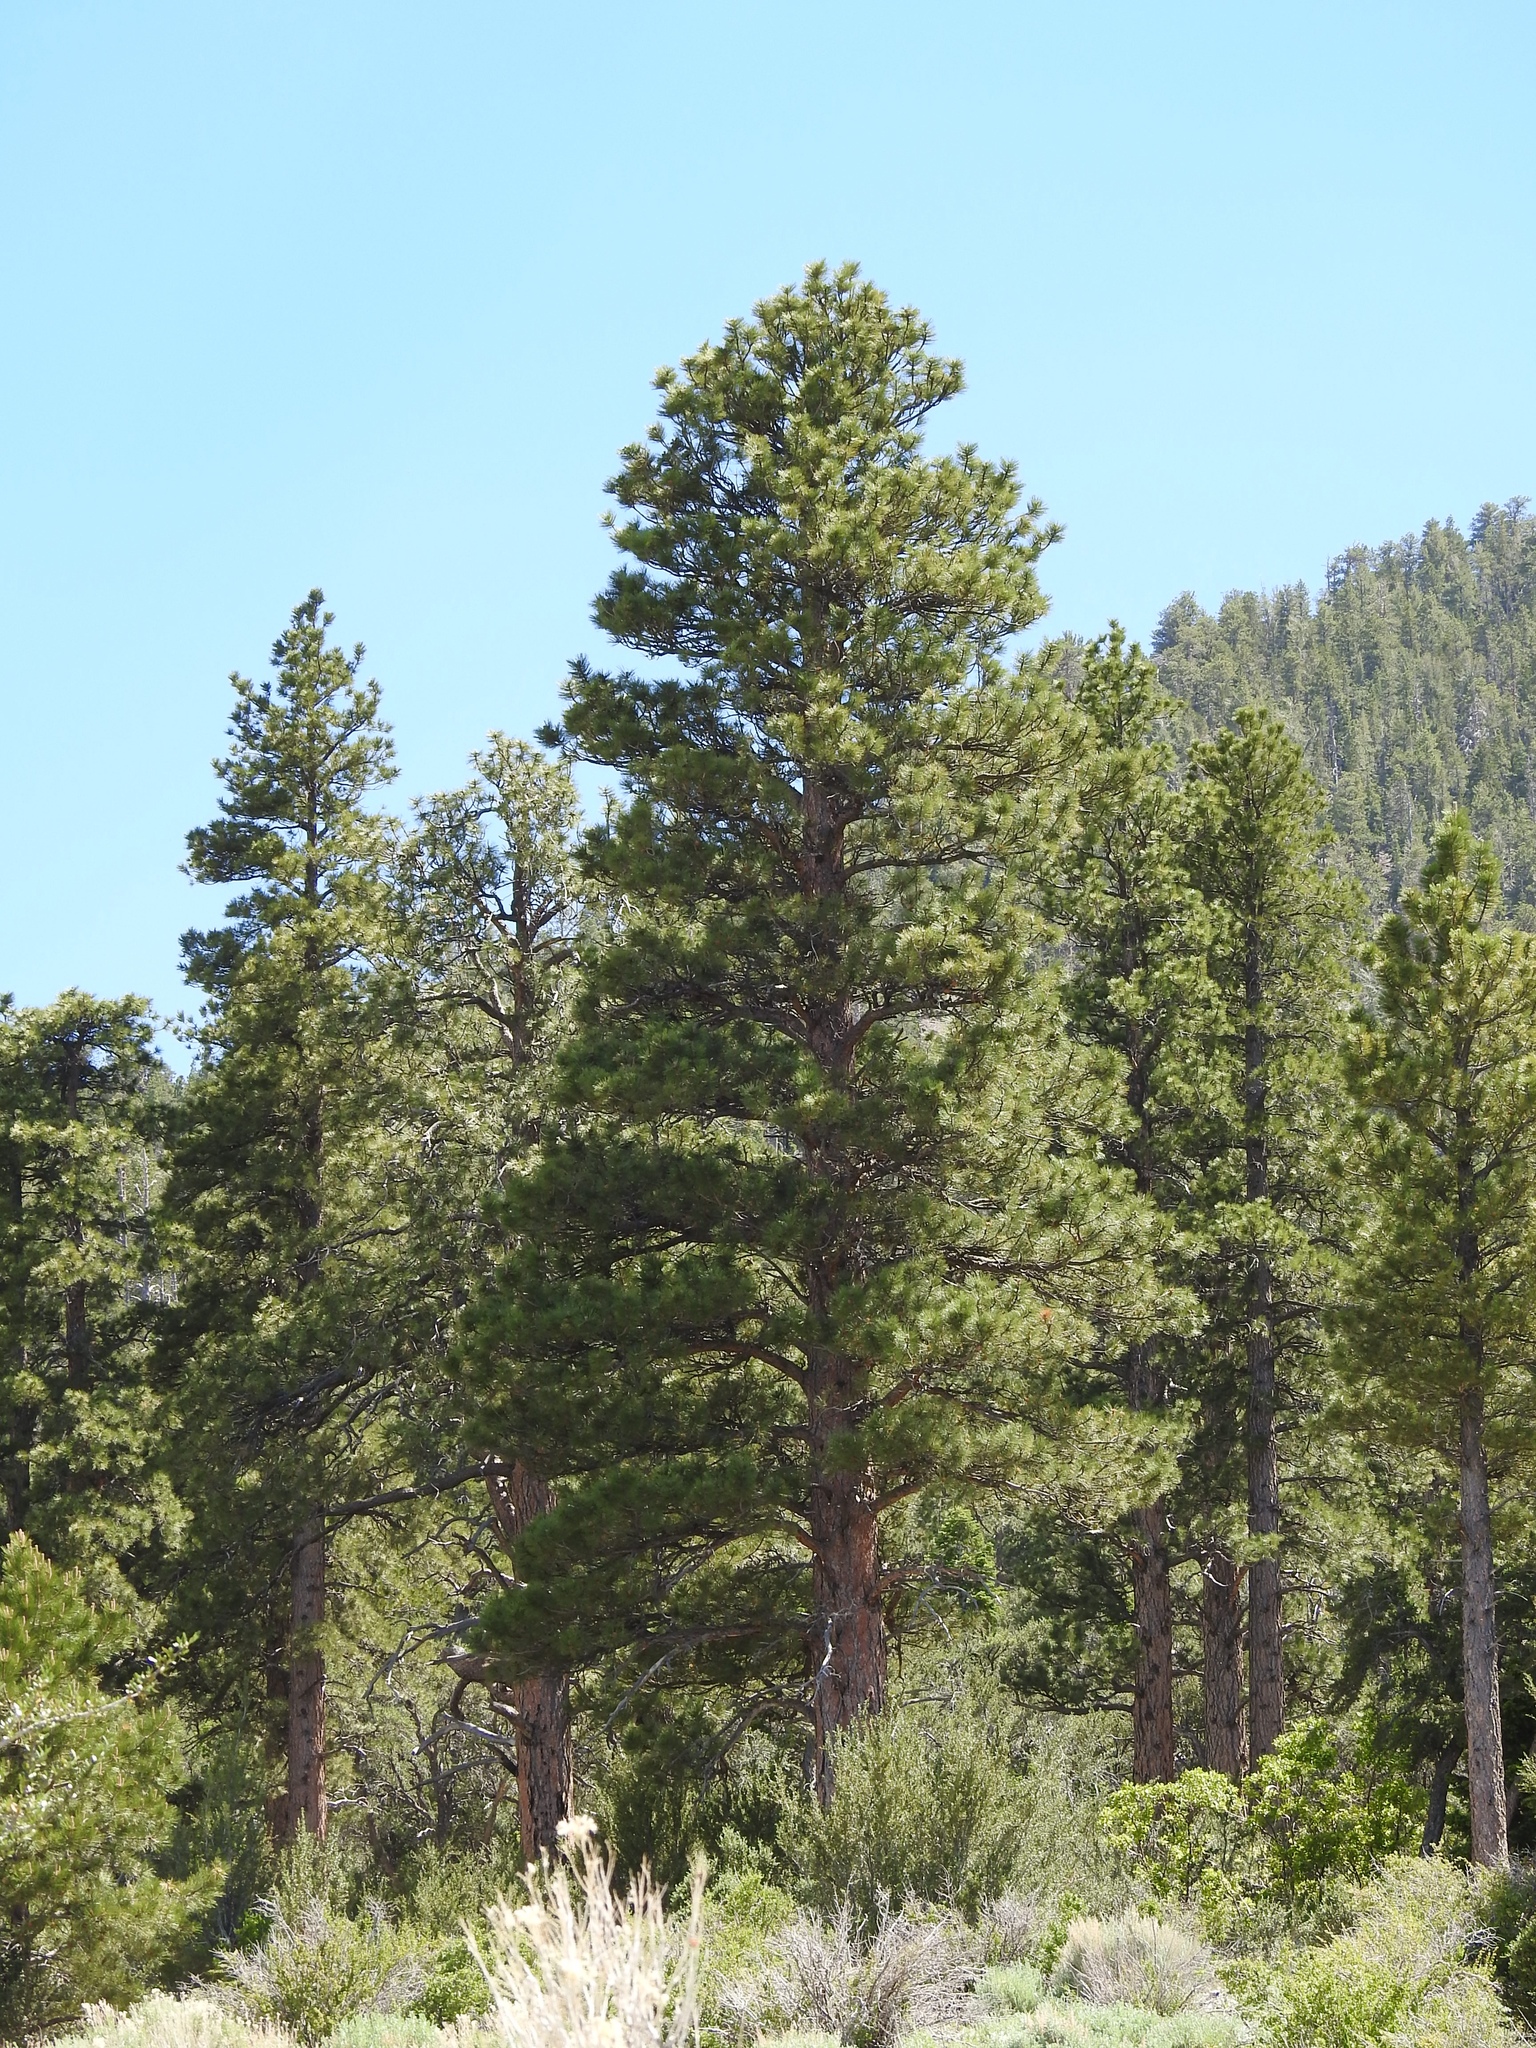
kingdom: Plantae
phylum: Tracheophyta
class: Pinopsida
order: Pinales
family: Pinaceae
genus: Pinus
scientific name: Pinus ponderosa
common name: Western yellow-pine
